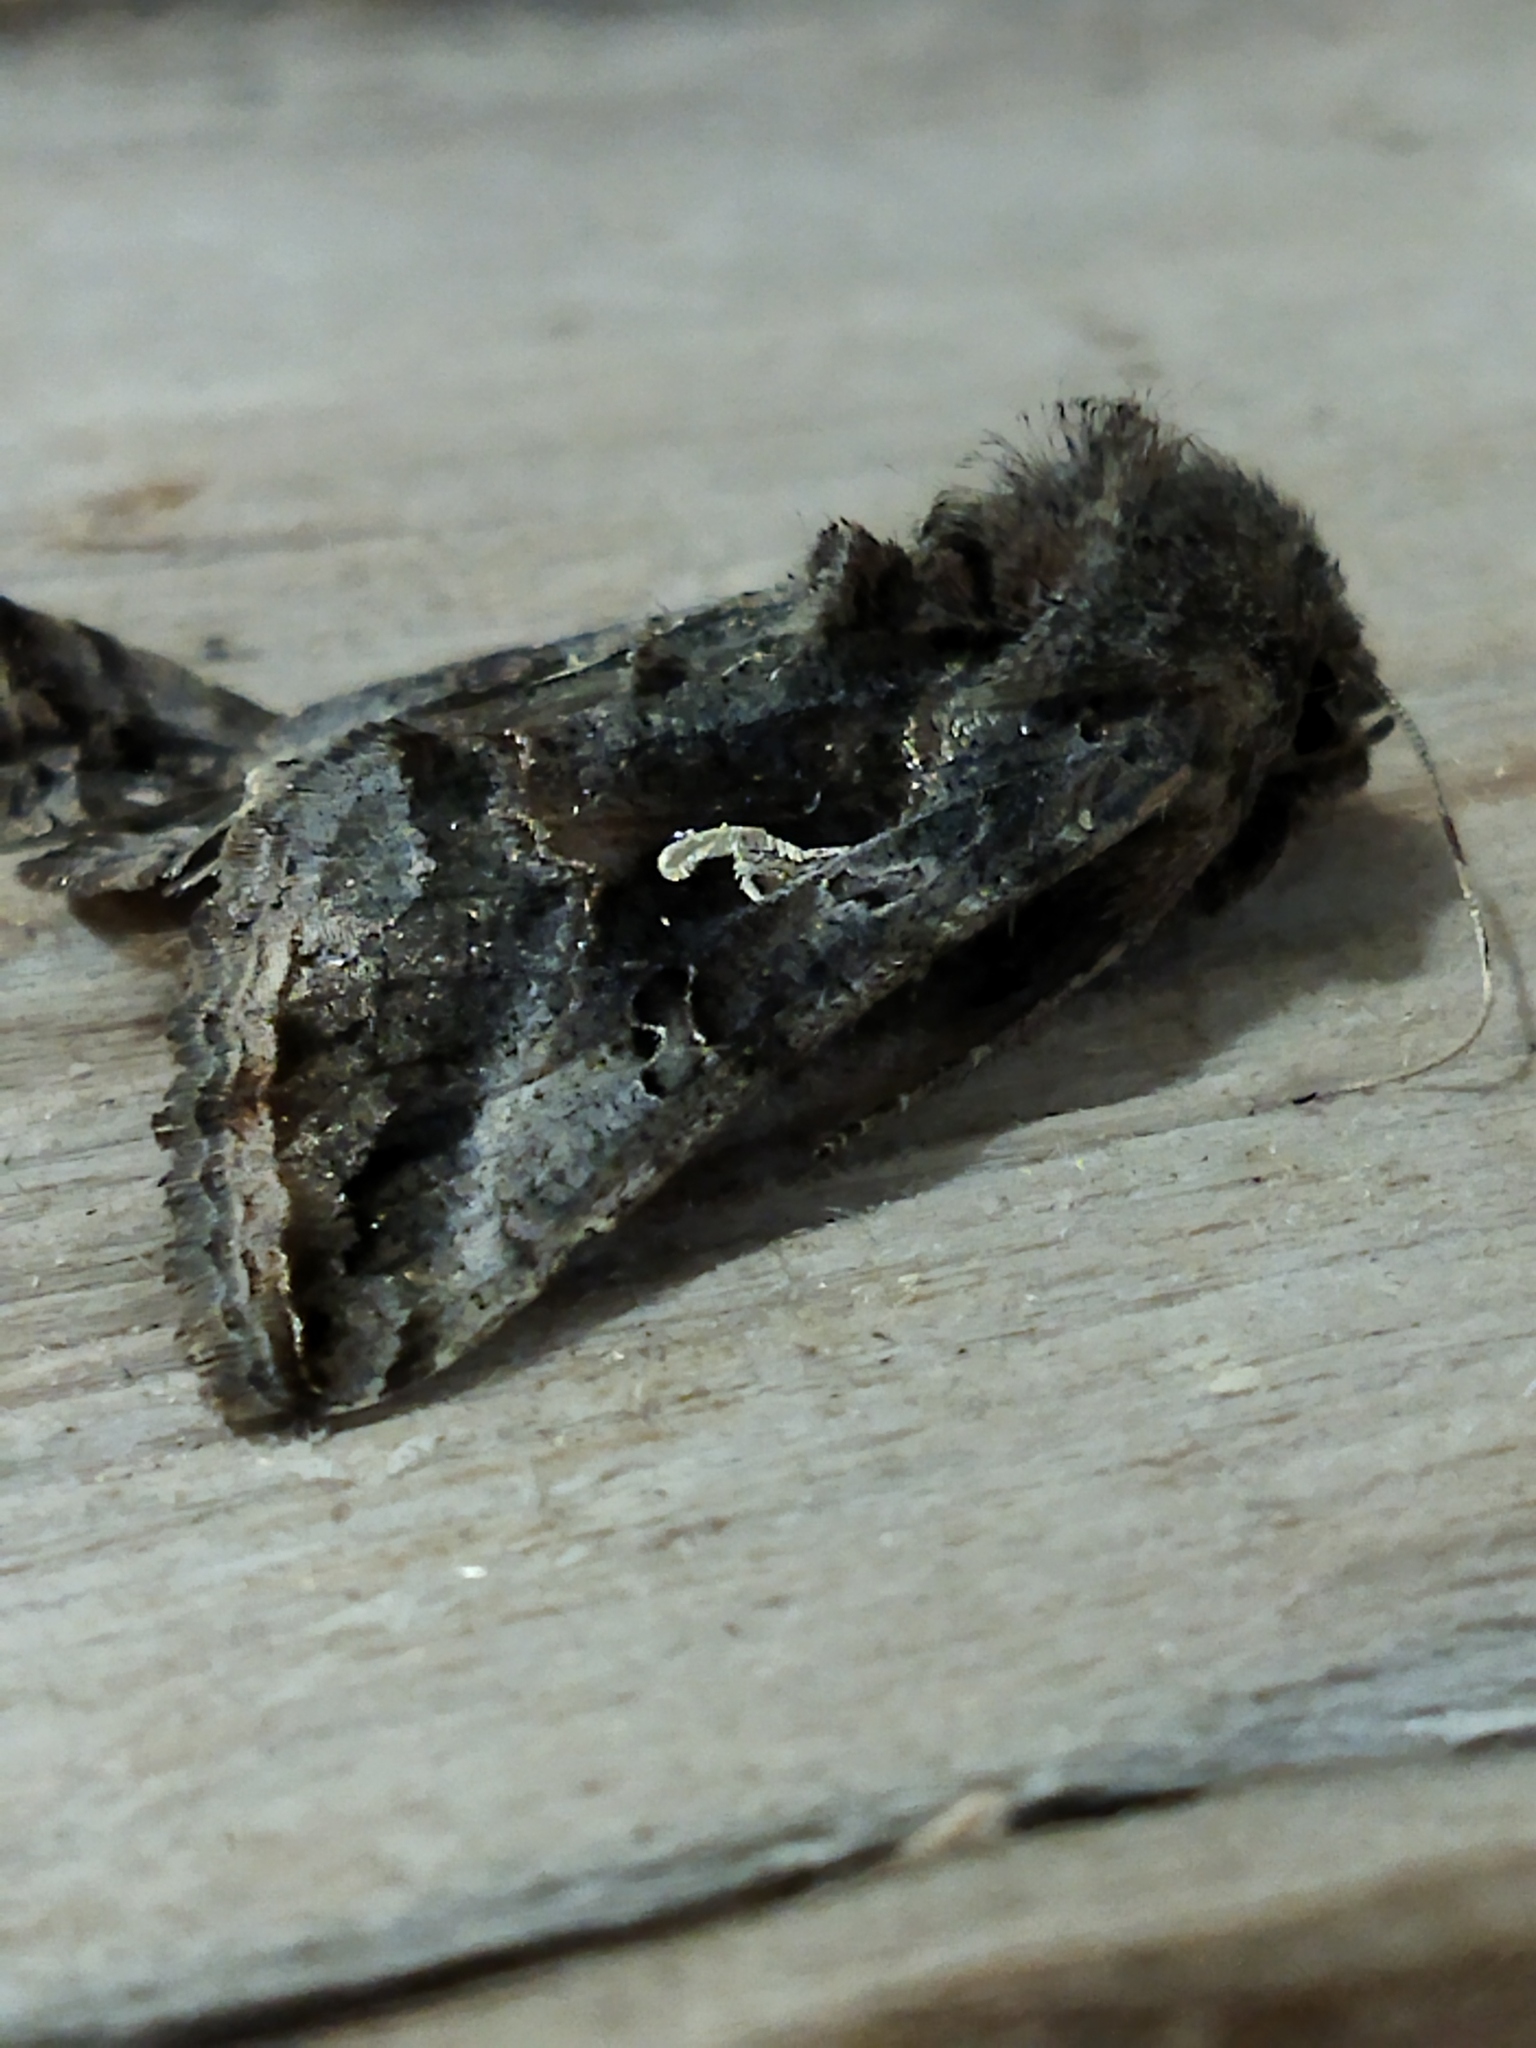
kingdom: Animalia
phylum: Arthropoda
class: Insecta
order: Lepidoptera
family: Noctuidae
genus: Autographa
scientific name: Autographa gamma
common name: Silver y
